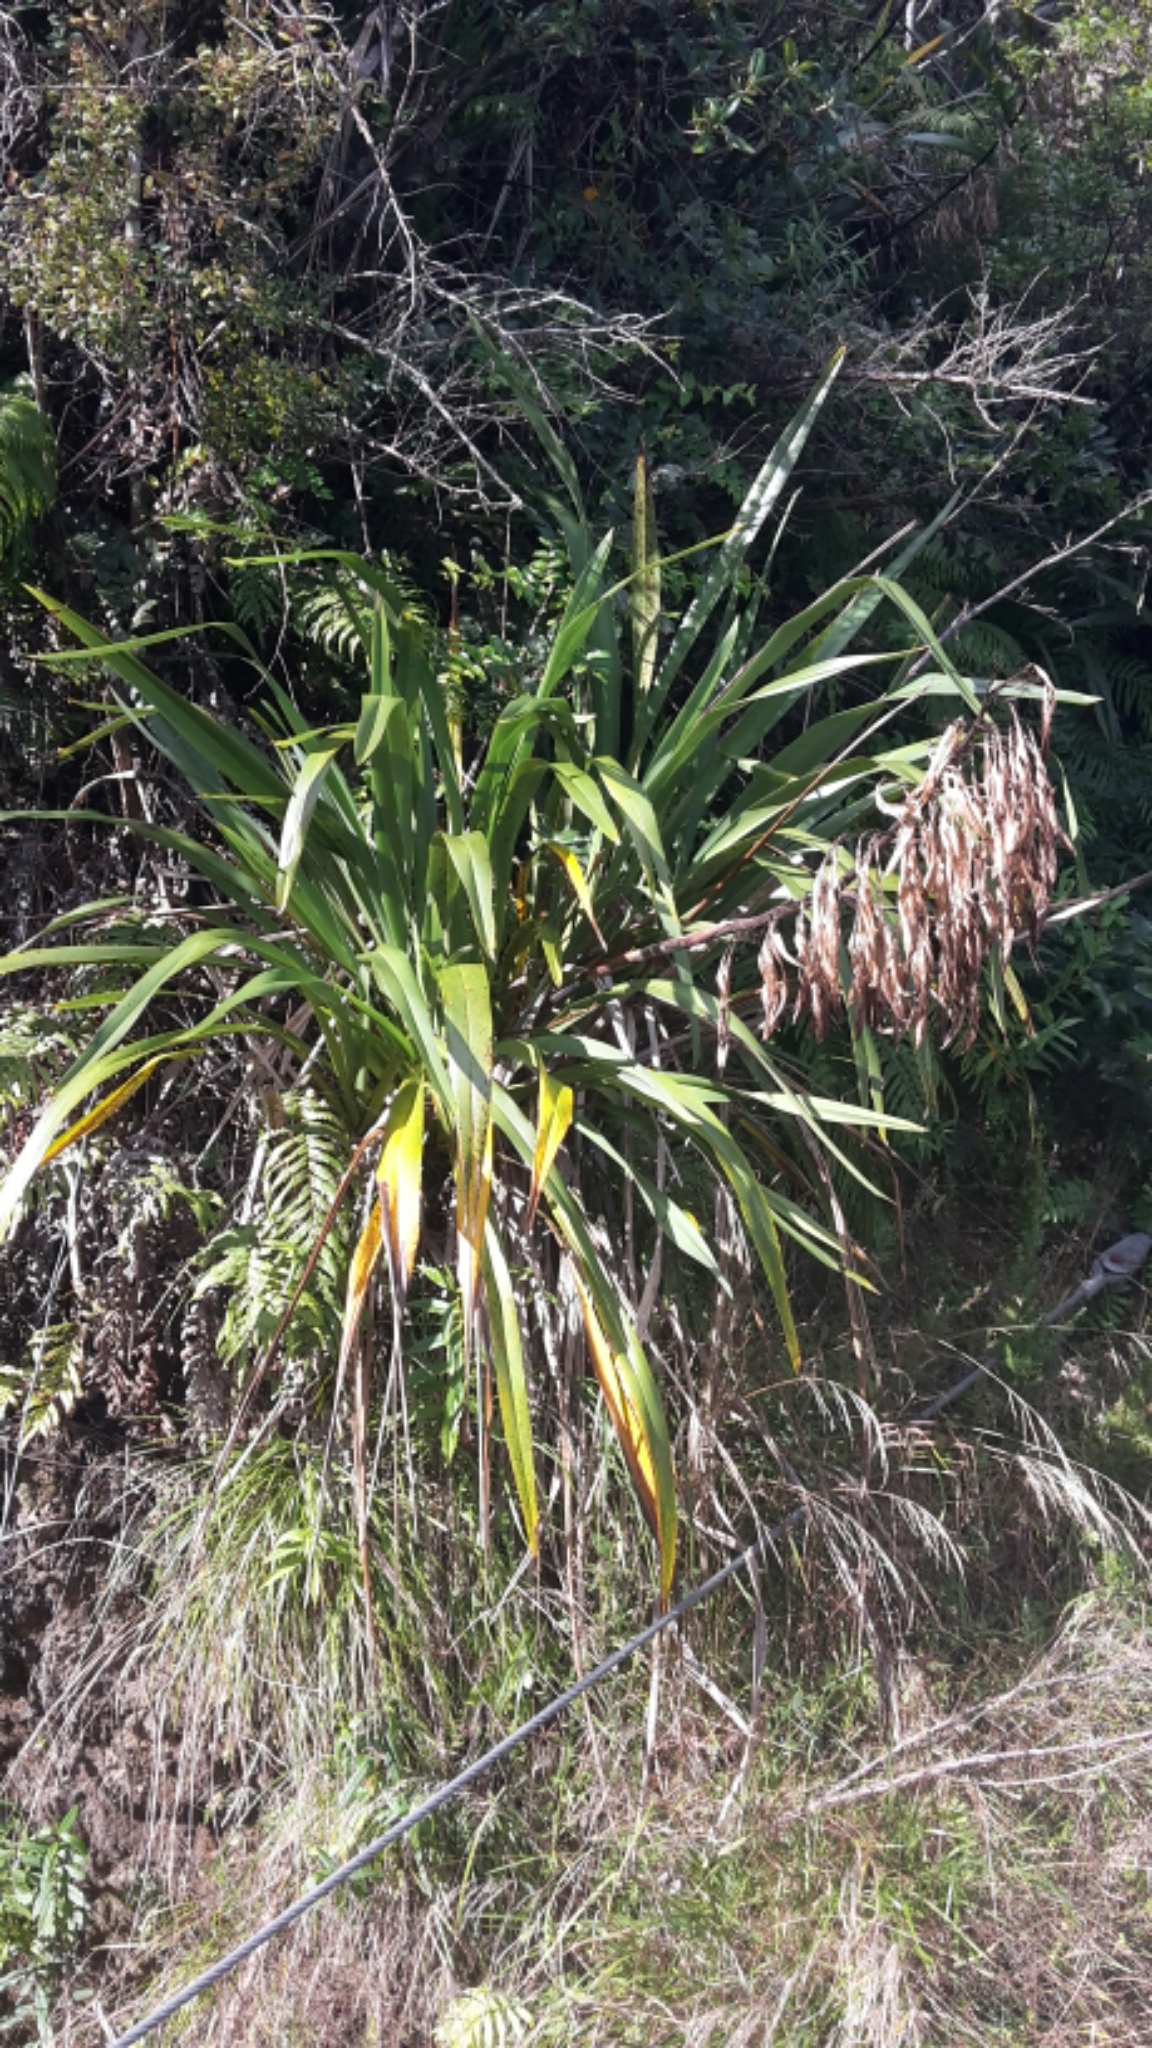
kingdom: Plantae
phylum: Tracheophyta
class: Liliopsida
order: Asparagales
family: Asphodelaceae
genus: Phormium
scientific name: Phormium tenax
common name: New zealand flax
